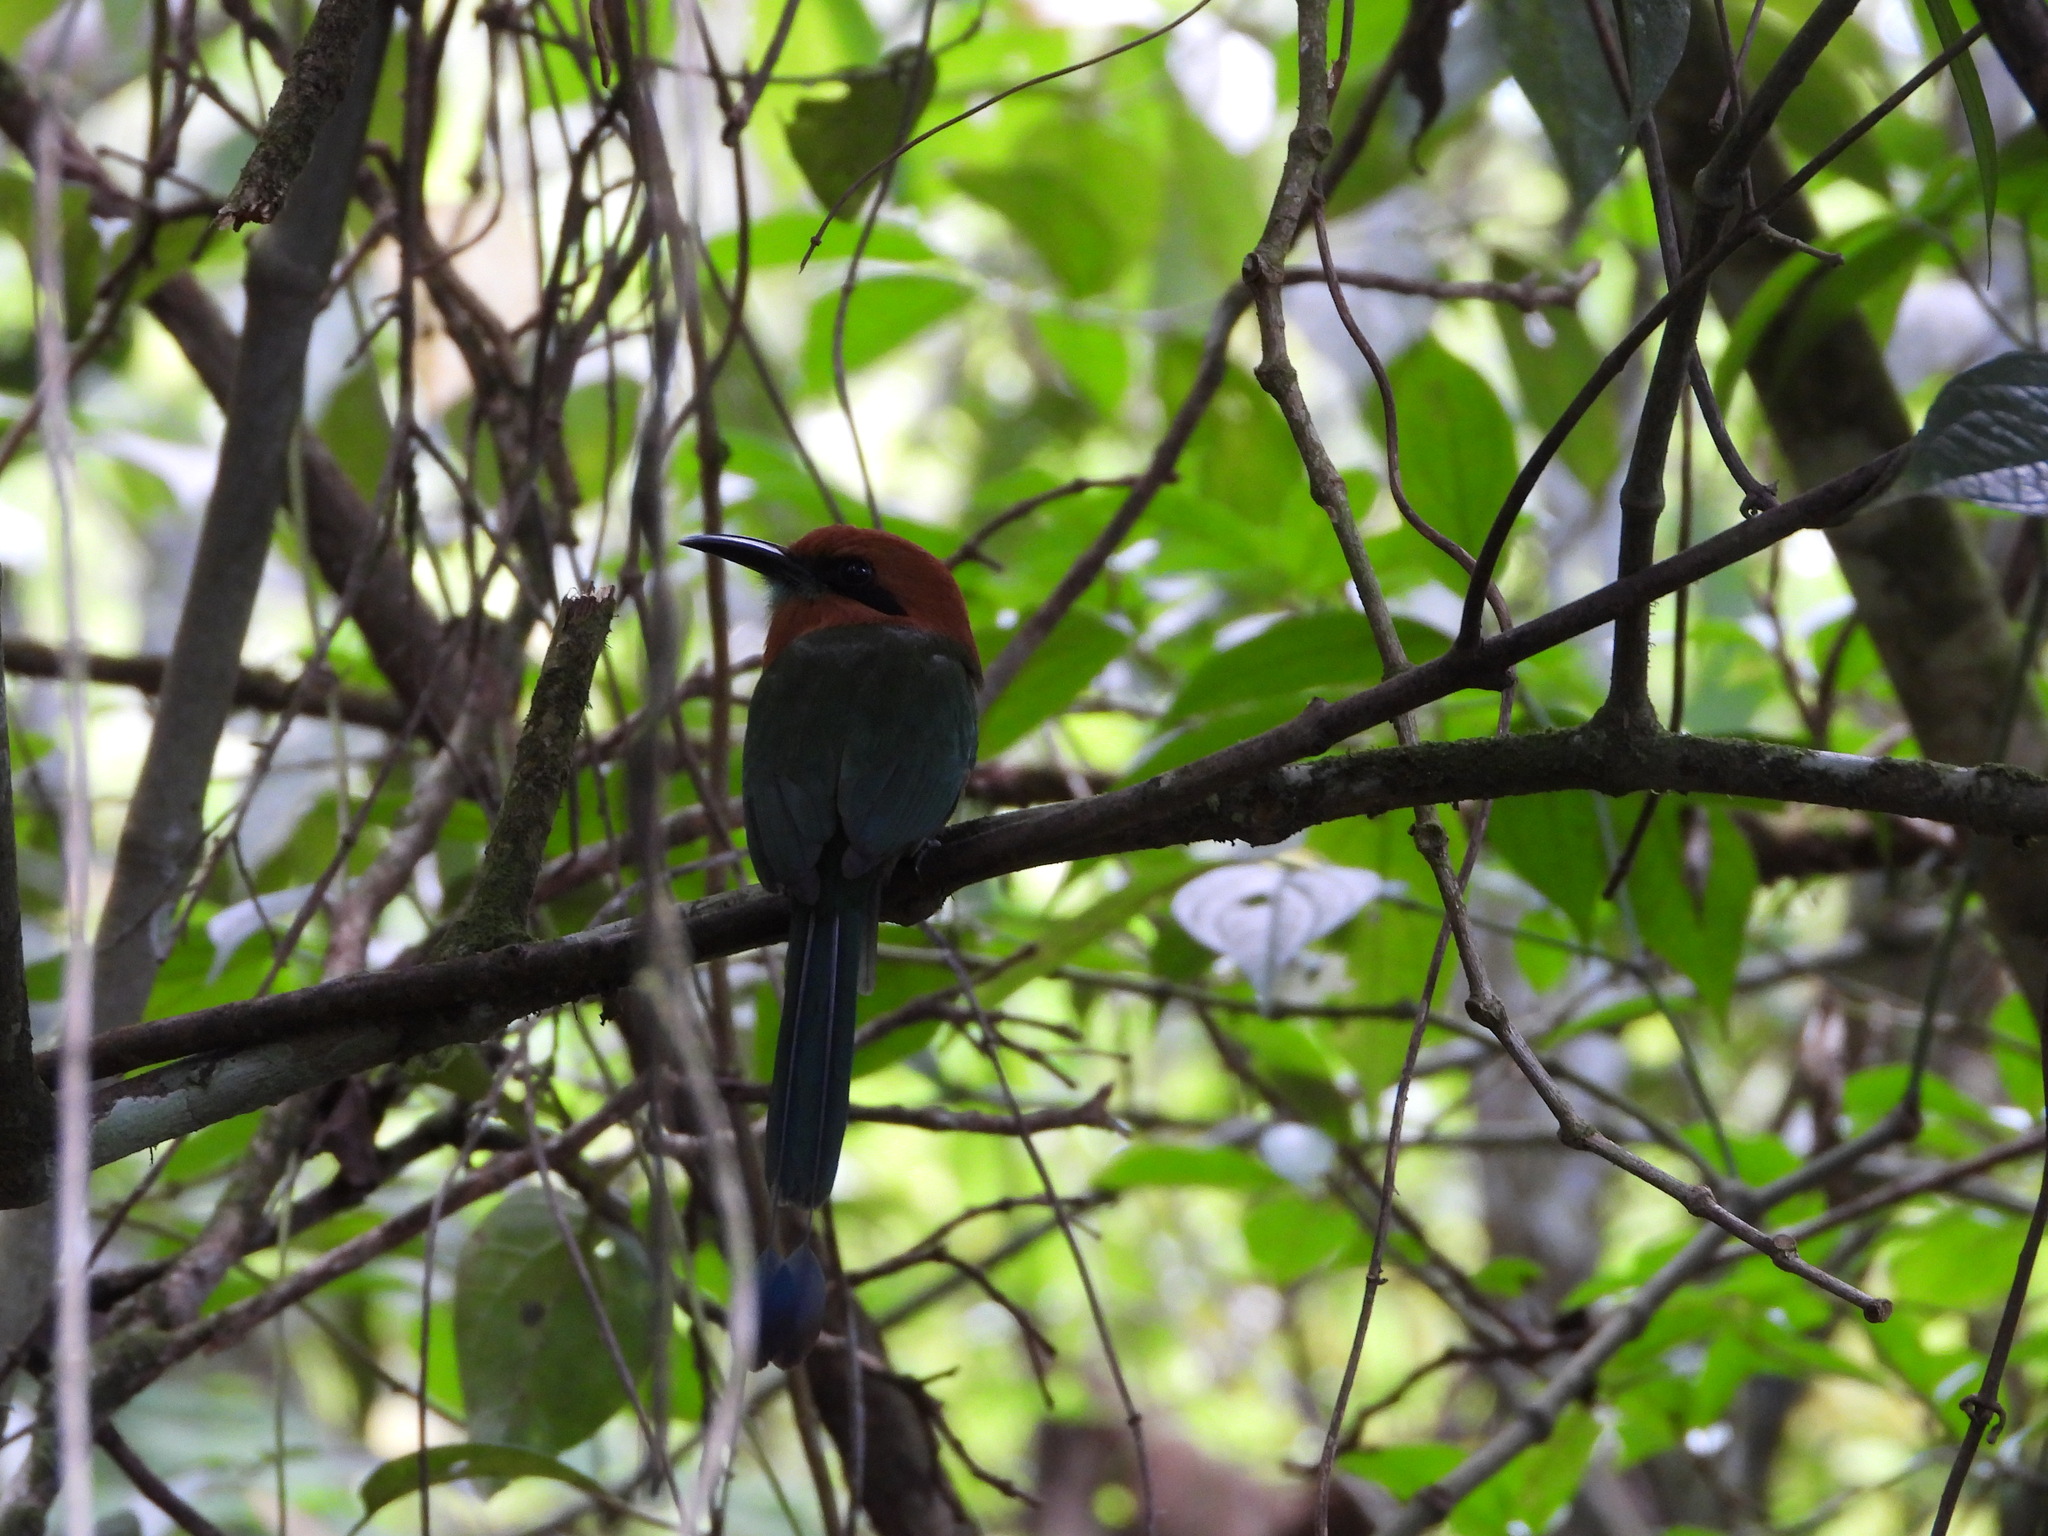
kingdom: Animalia
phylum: Chordata
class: Aves
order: Coraciiformes
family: Momotidae
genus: Electron
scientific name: Electron platyrhynchum
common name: Broad-billed motmot
